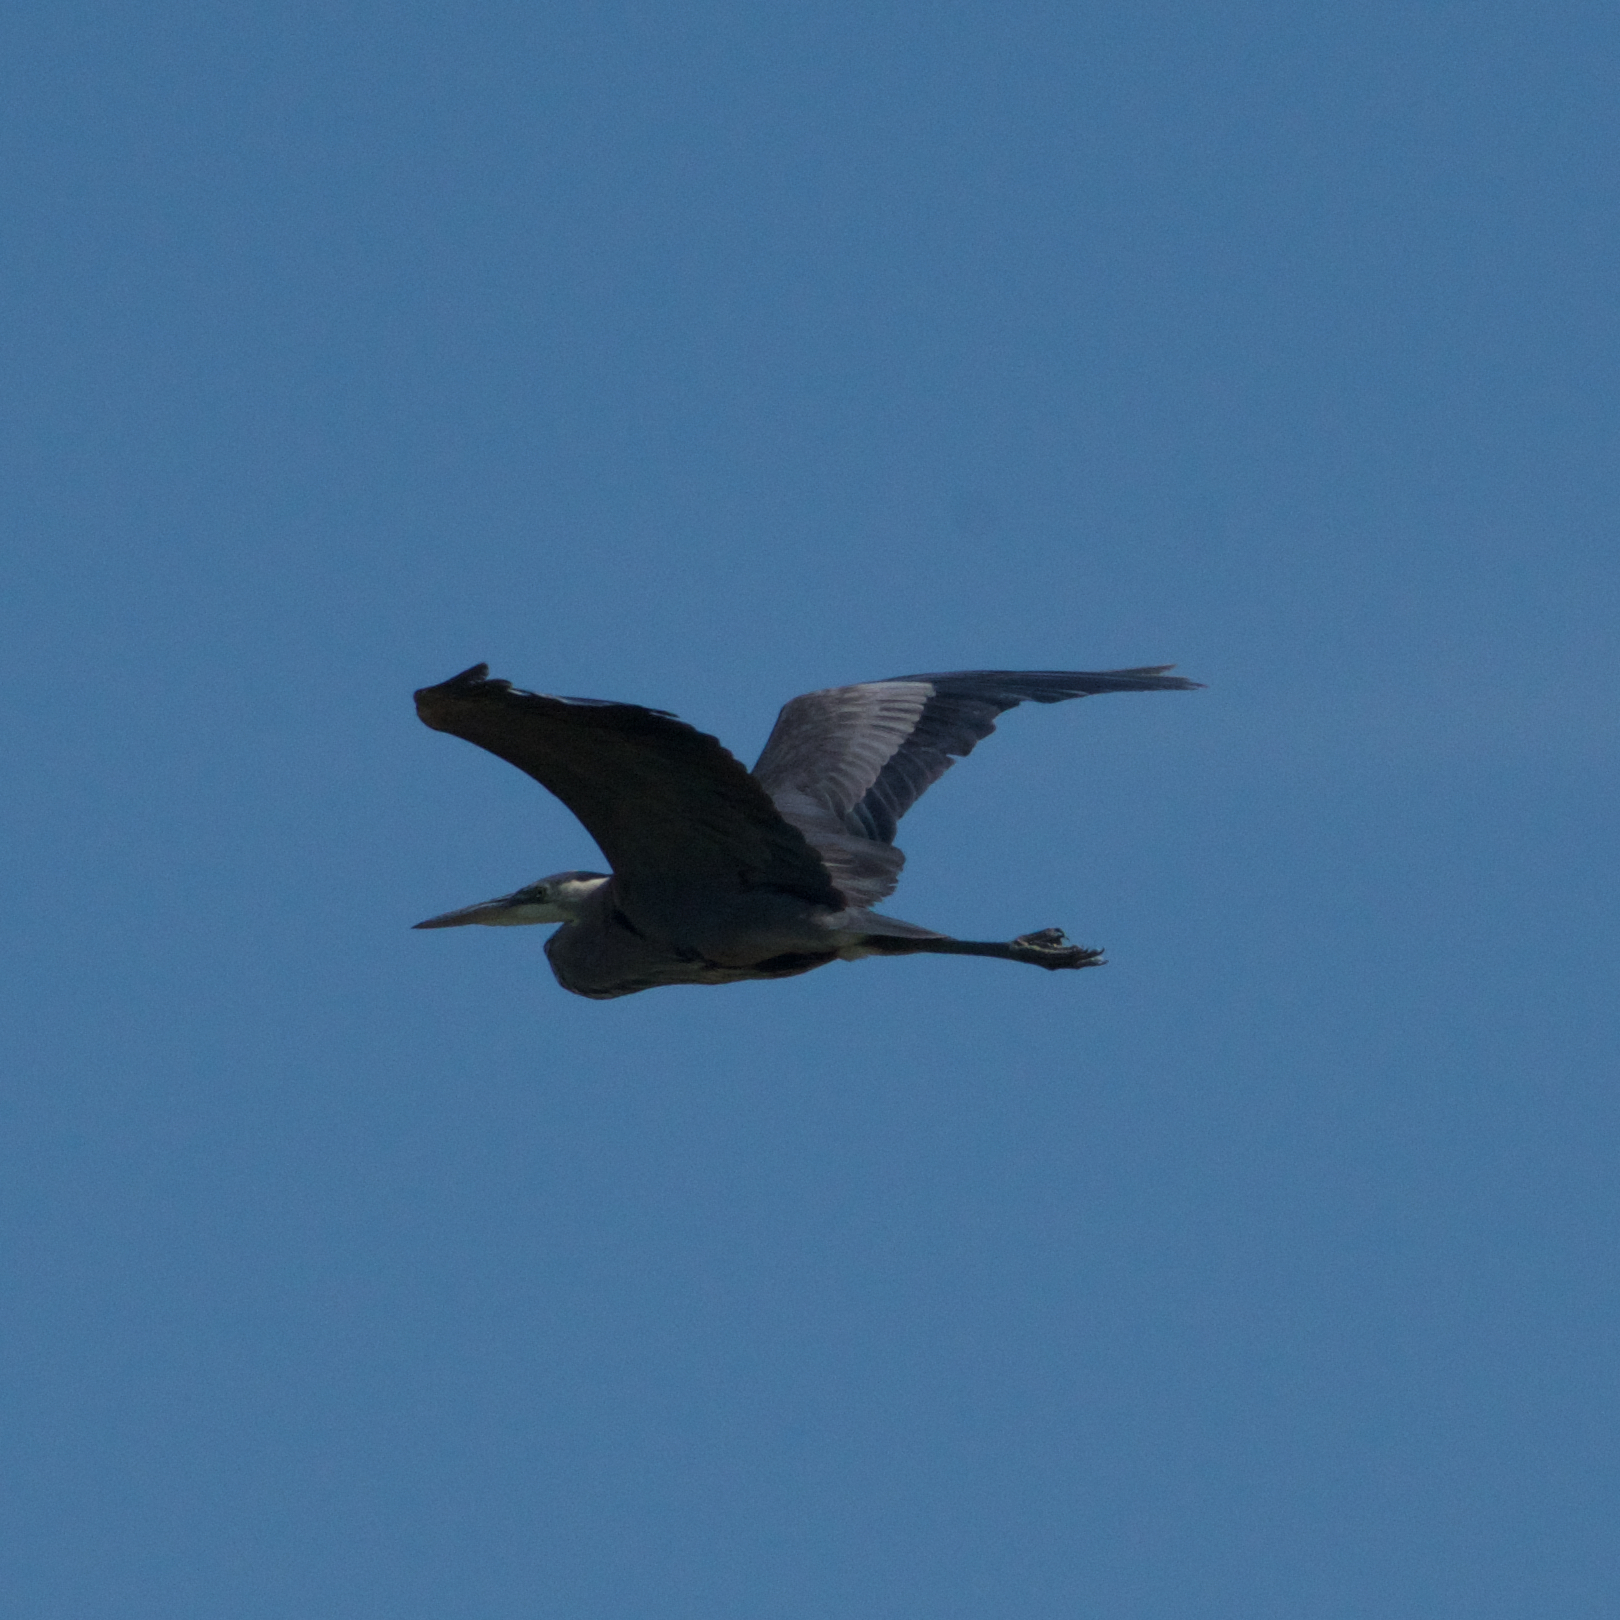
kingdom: Animalia
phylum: Chordata
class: Aves
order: Pelecaniformes
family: Ardeidae
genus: Ardea
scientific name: Ardea herodias
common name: Great blue heron
